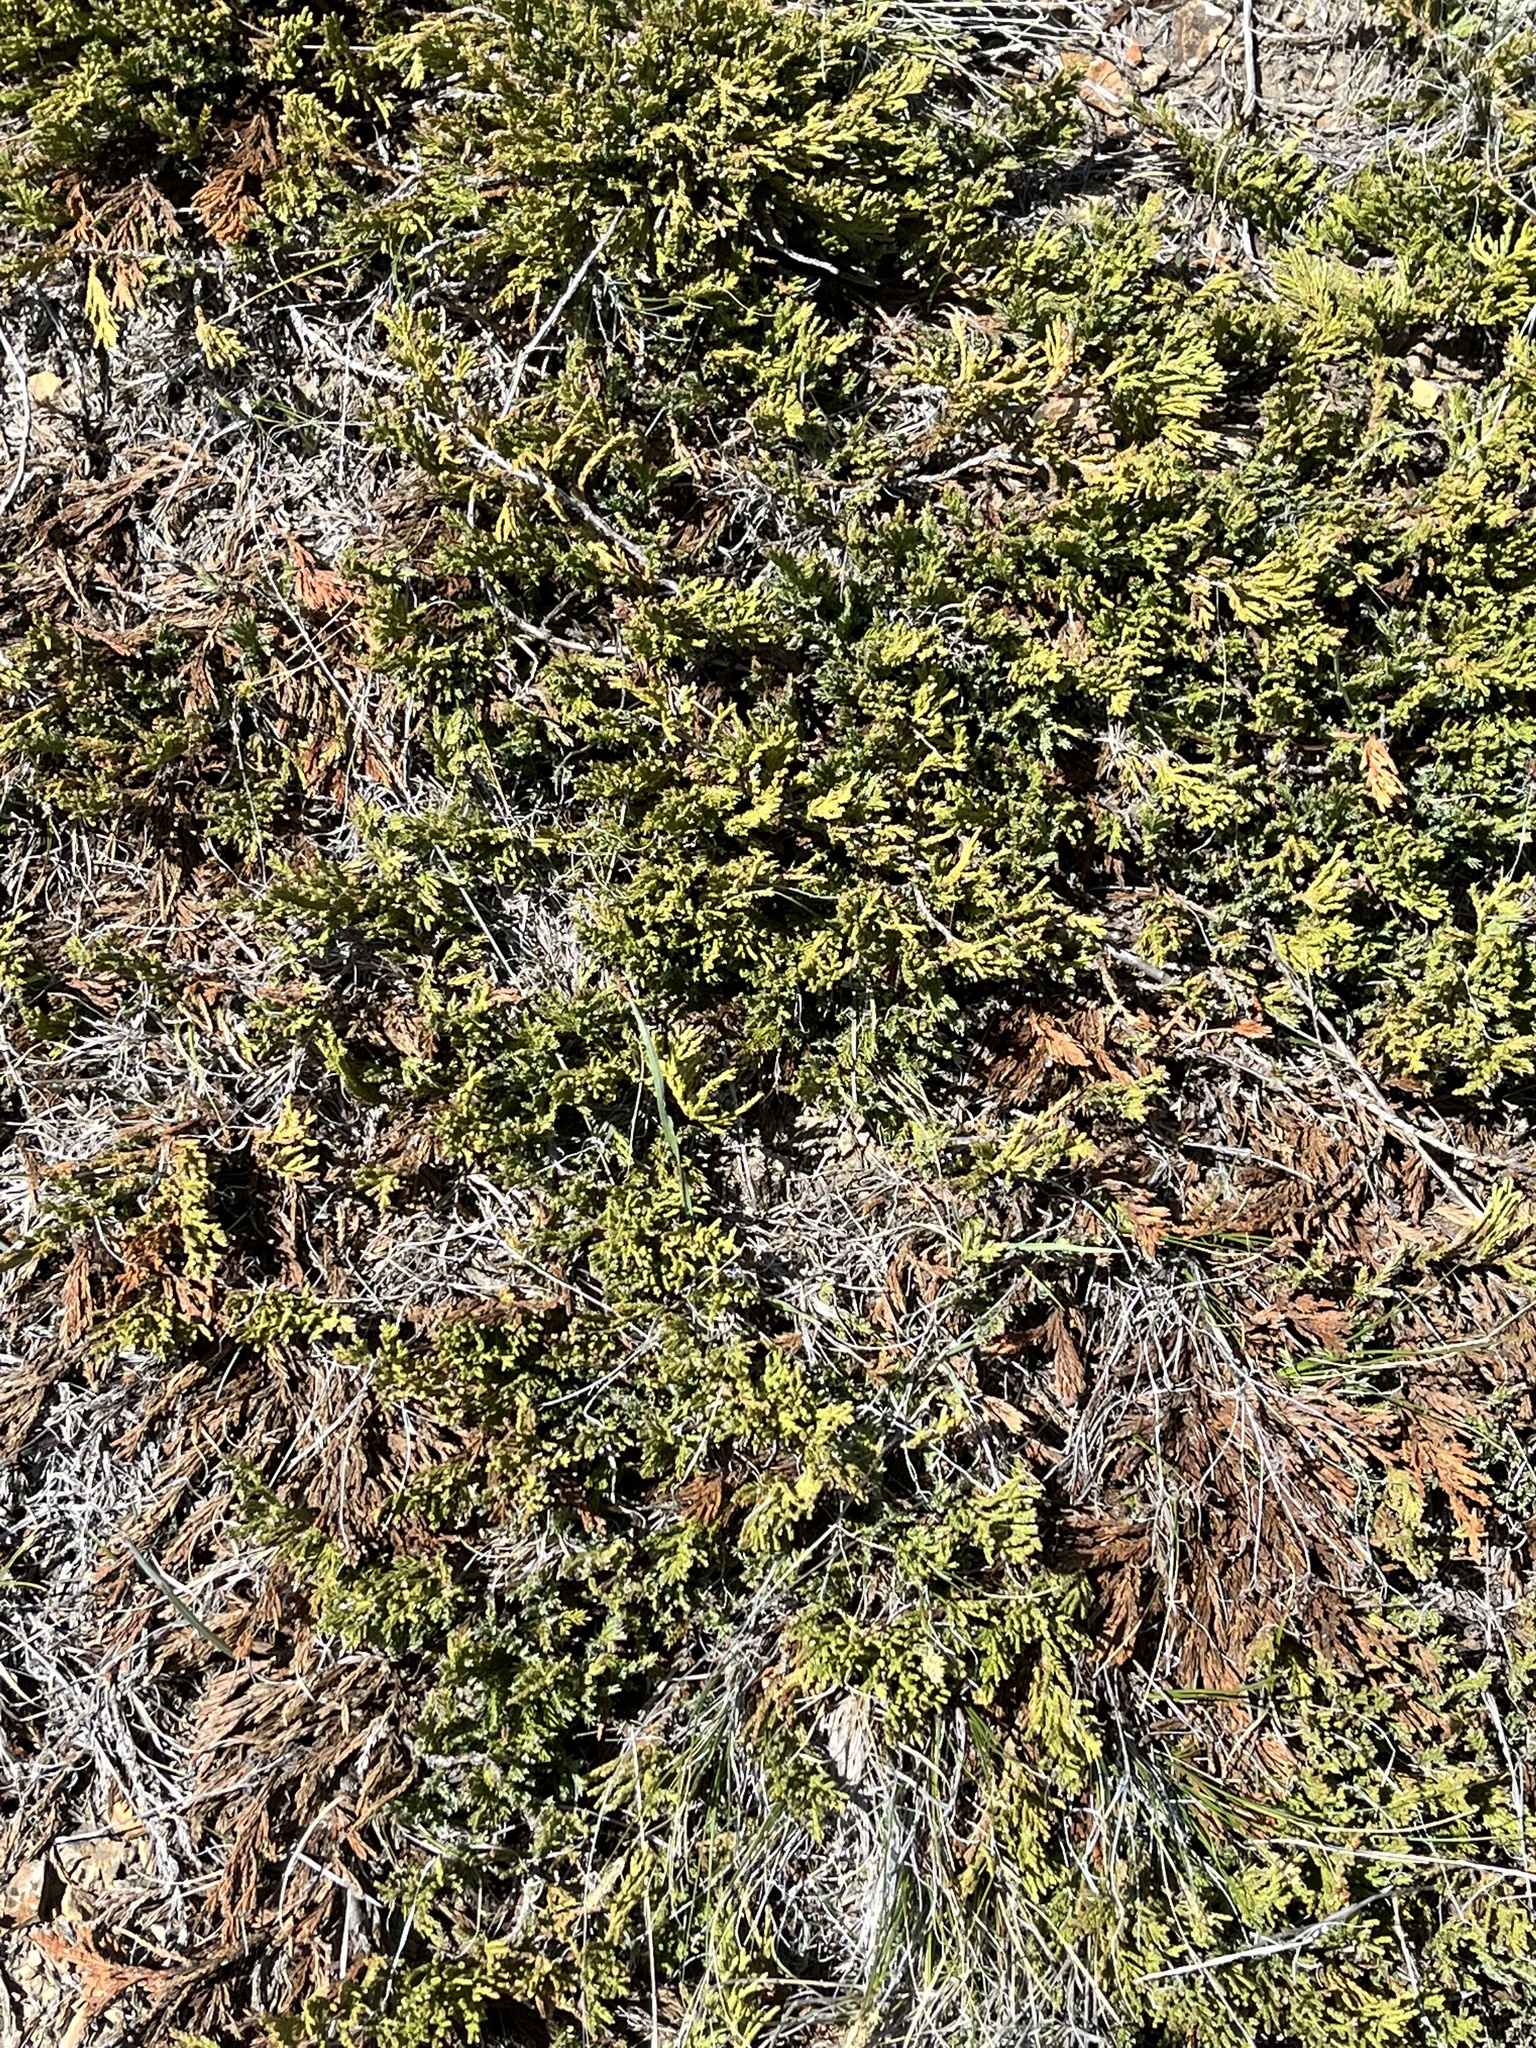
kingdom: Plantae
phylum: Tracheophyta
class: Pinopsida
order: Pinales
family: Cupressaceae
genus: Juniperus
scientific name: Juniperus horizontalis
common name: Creeping juniper
